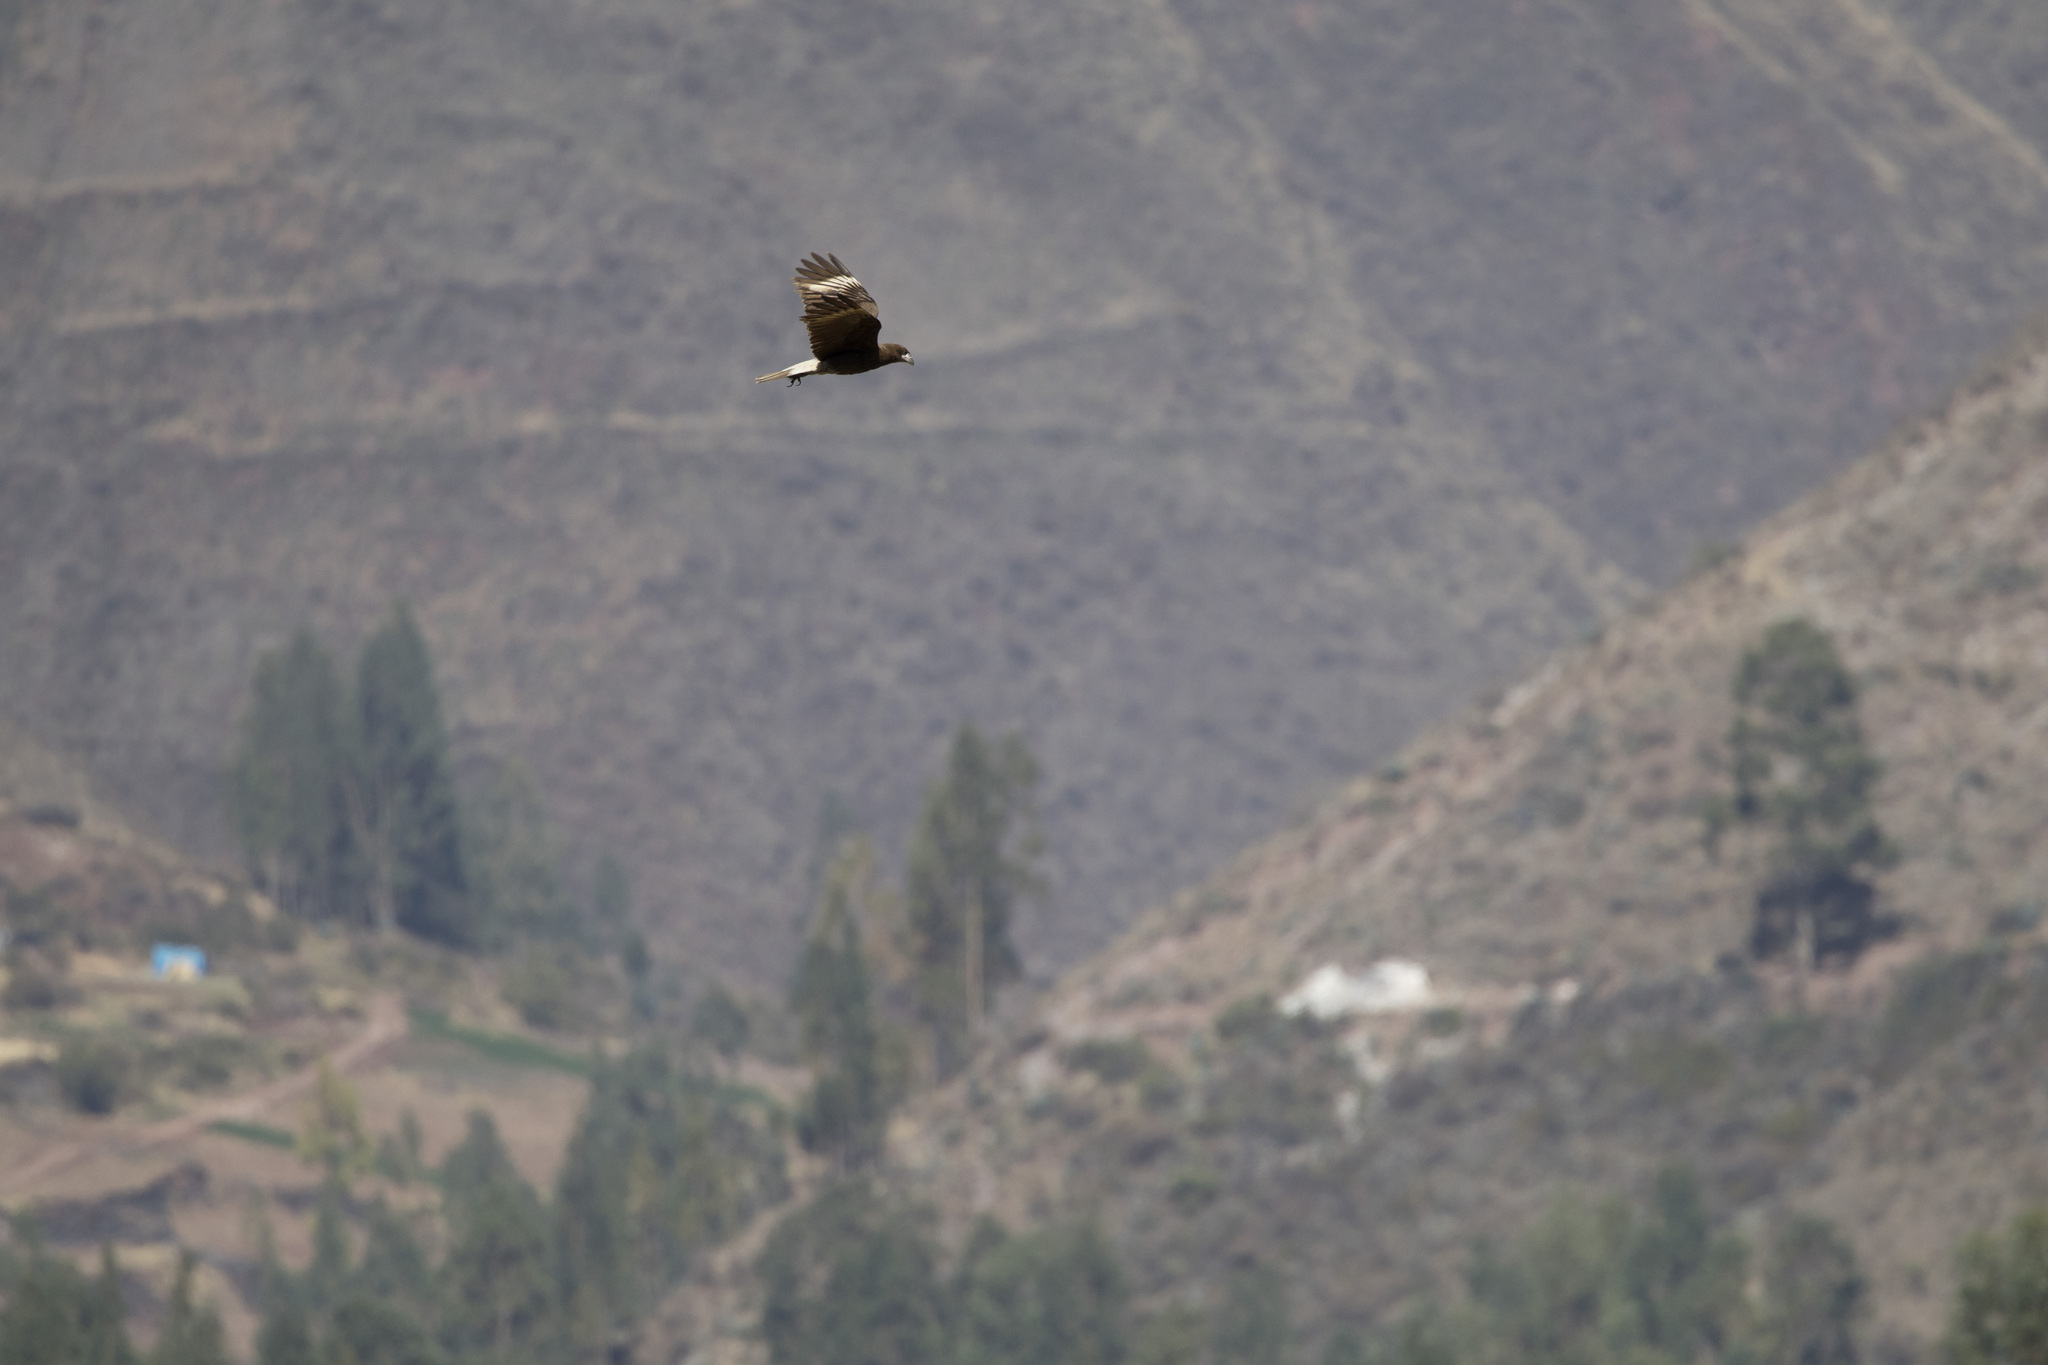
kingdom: Animalia
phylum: Chordata
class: Aves
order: Falconiformes
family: Falconidae
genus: Daptrius
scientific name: Daptrius
